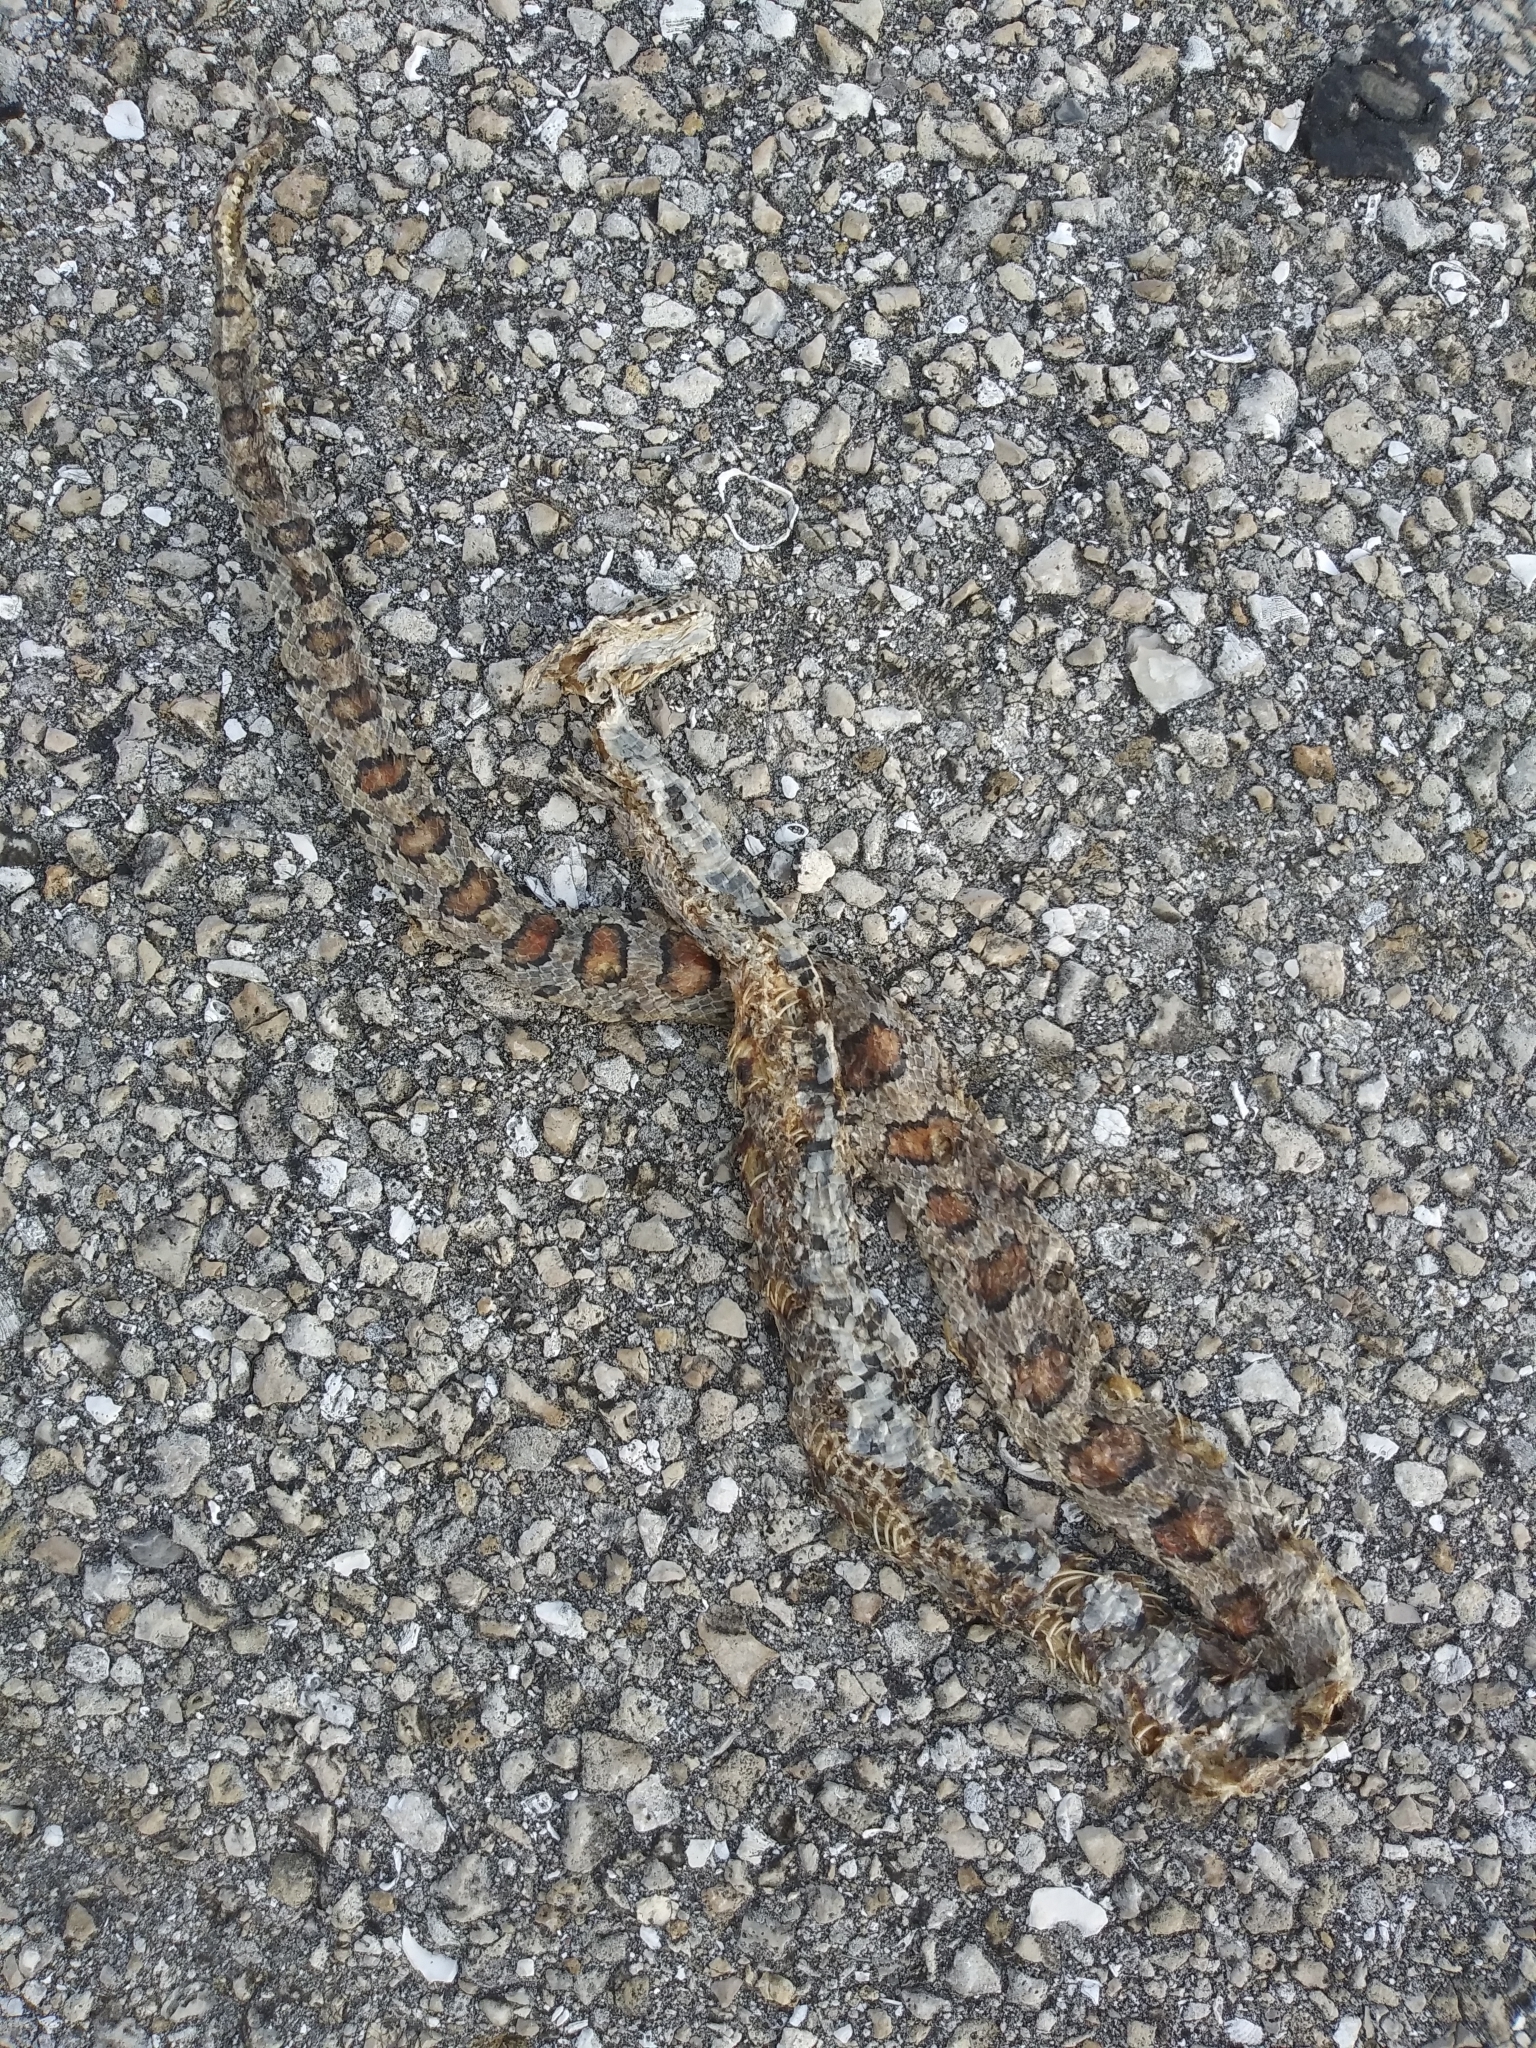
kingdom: Animalia
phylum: Chordata
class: Squamata
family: Colubridae
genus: Pantherophis
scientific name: Pantherophis guttatus
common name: Red cornsnake
